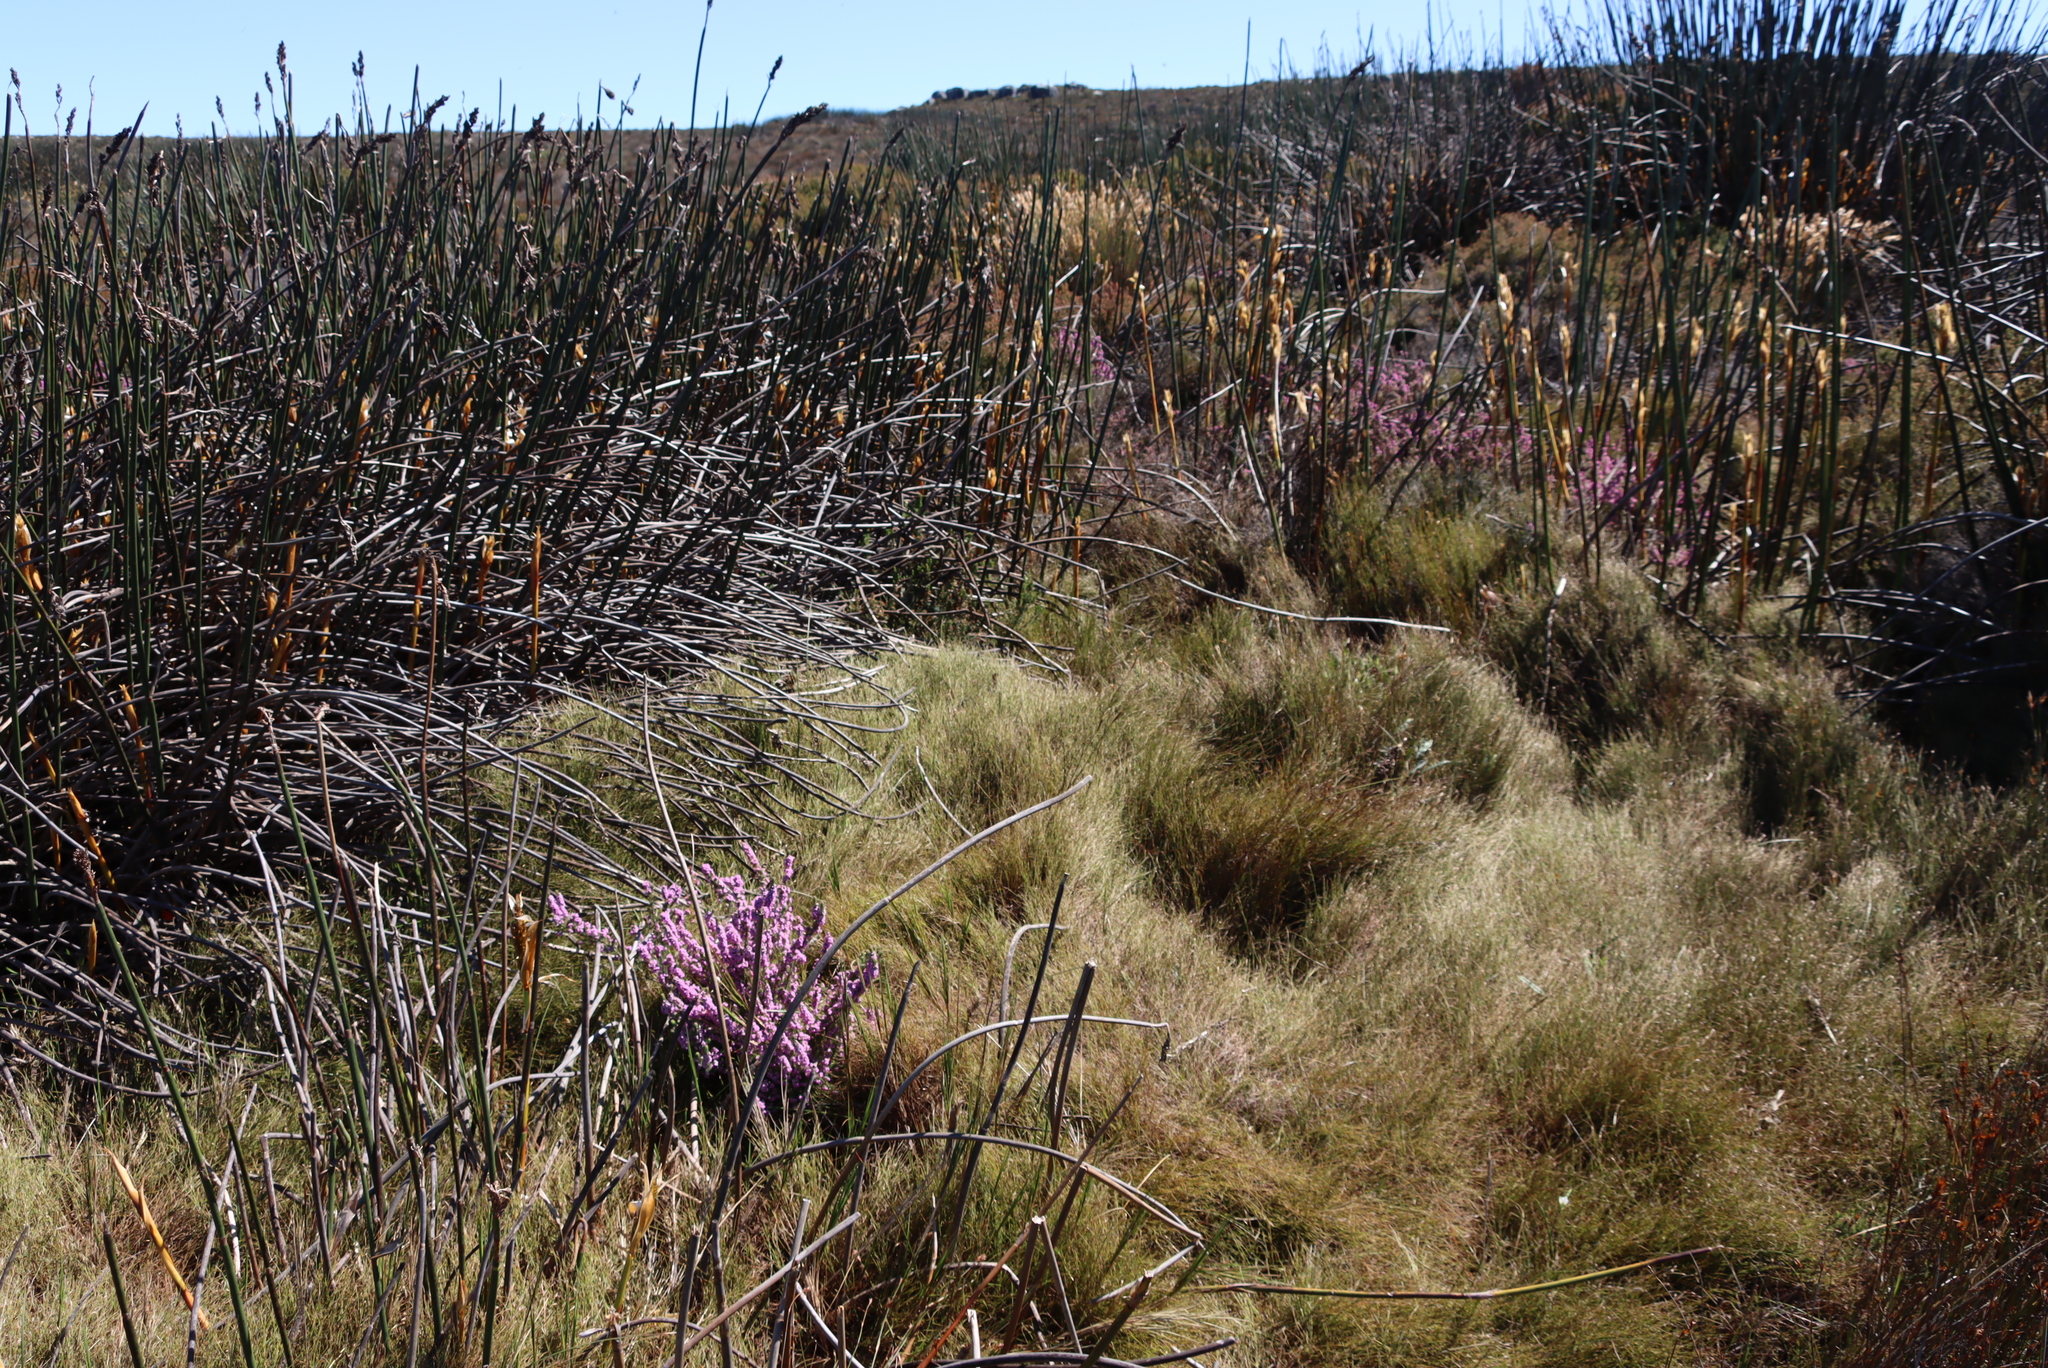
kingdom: Plantae
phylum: Tracheophyta
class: Magnoliopsida
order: Ericales
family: Ericaceae
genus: Erica
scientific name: Erica mollis
